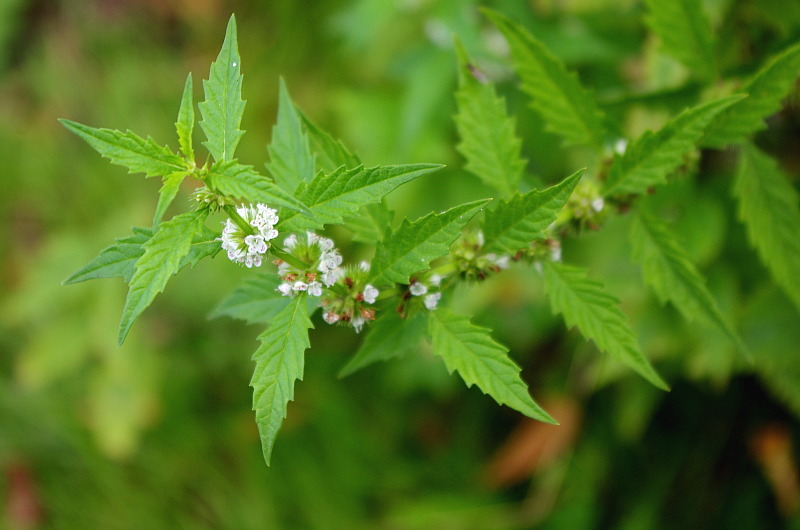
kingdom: Plantae
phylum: Tracheophyta
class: Magnoliopsida
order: Lamiales
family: Lamiaceae
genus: Lycopus
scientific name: Lycopus europaeus
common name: European bugleweed
